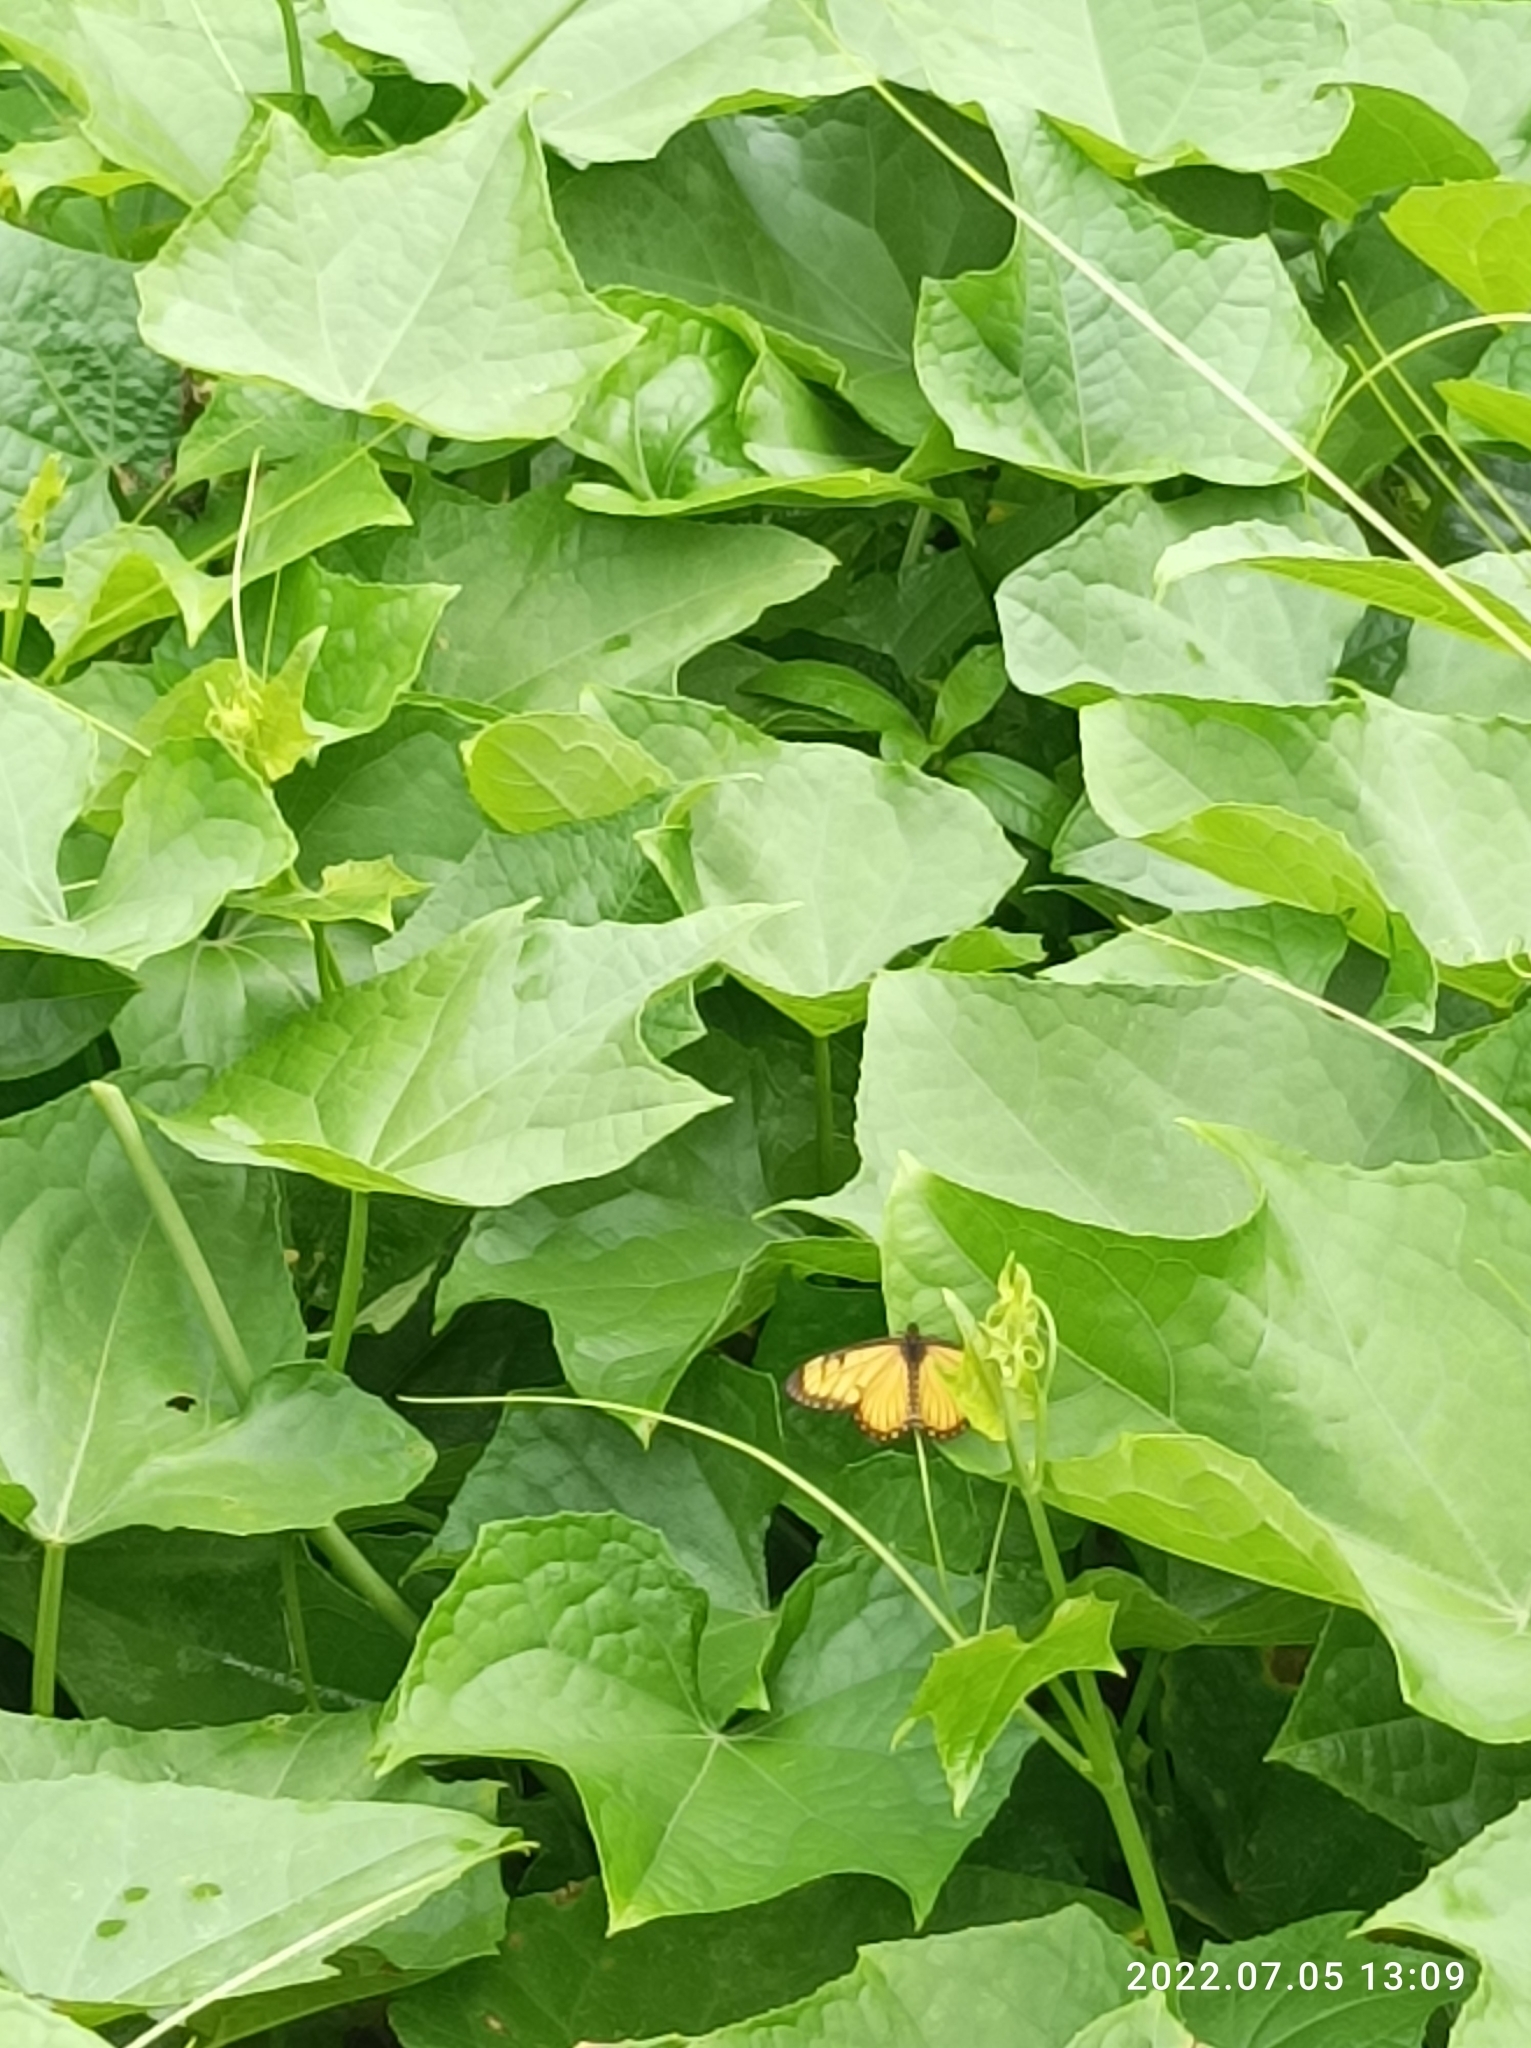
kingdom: Animalia
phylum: Arthropoda
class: Insecta
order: Lepidoptera
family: Nymphalidae
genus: Acraea
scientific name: Acraea Telchinia issoria
